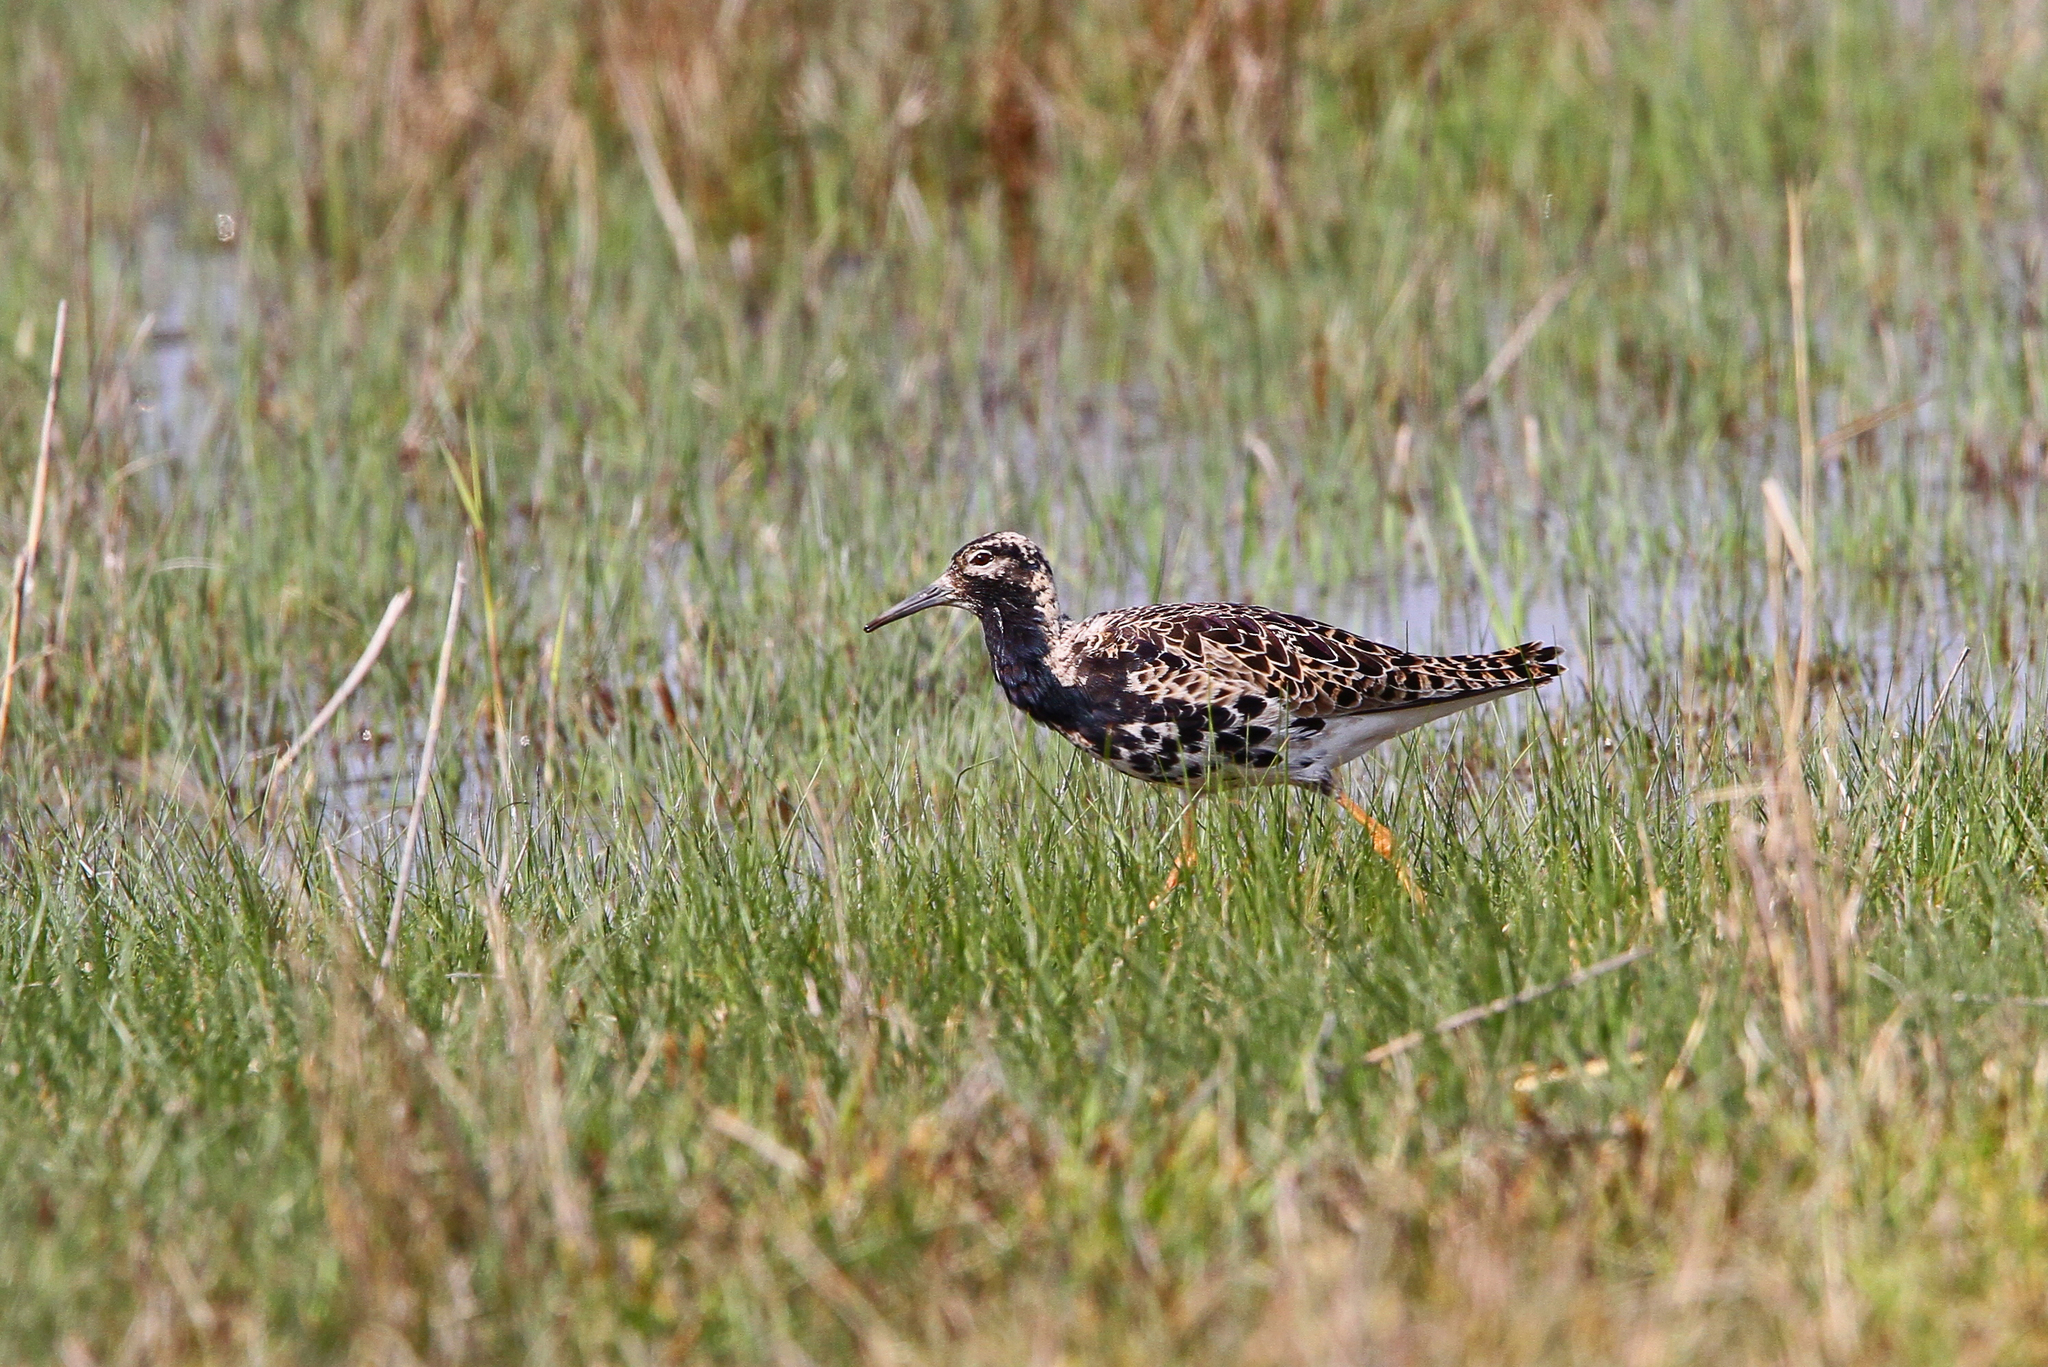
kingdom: Animalia
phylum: Chordata
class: Aves
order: Charadriiformes
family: Scolopacidae
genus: Calidris
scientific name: Calidris pugnax
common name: Ruff
